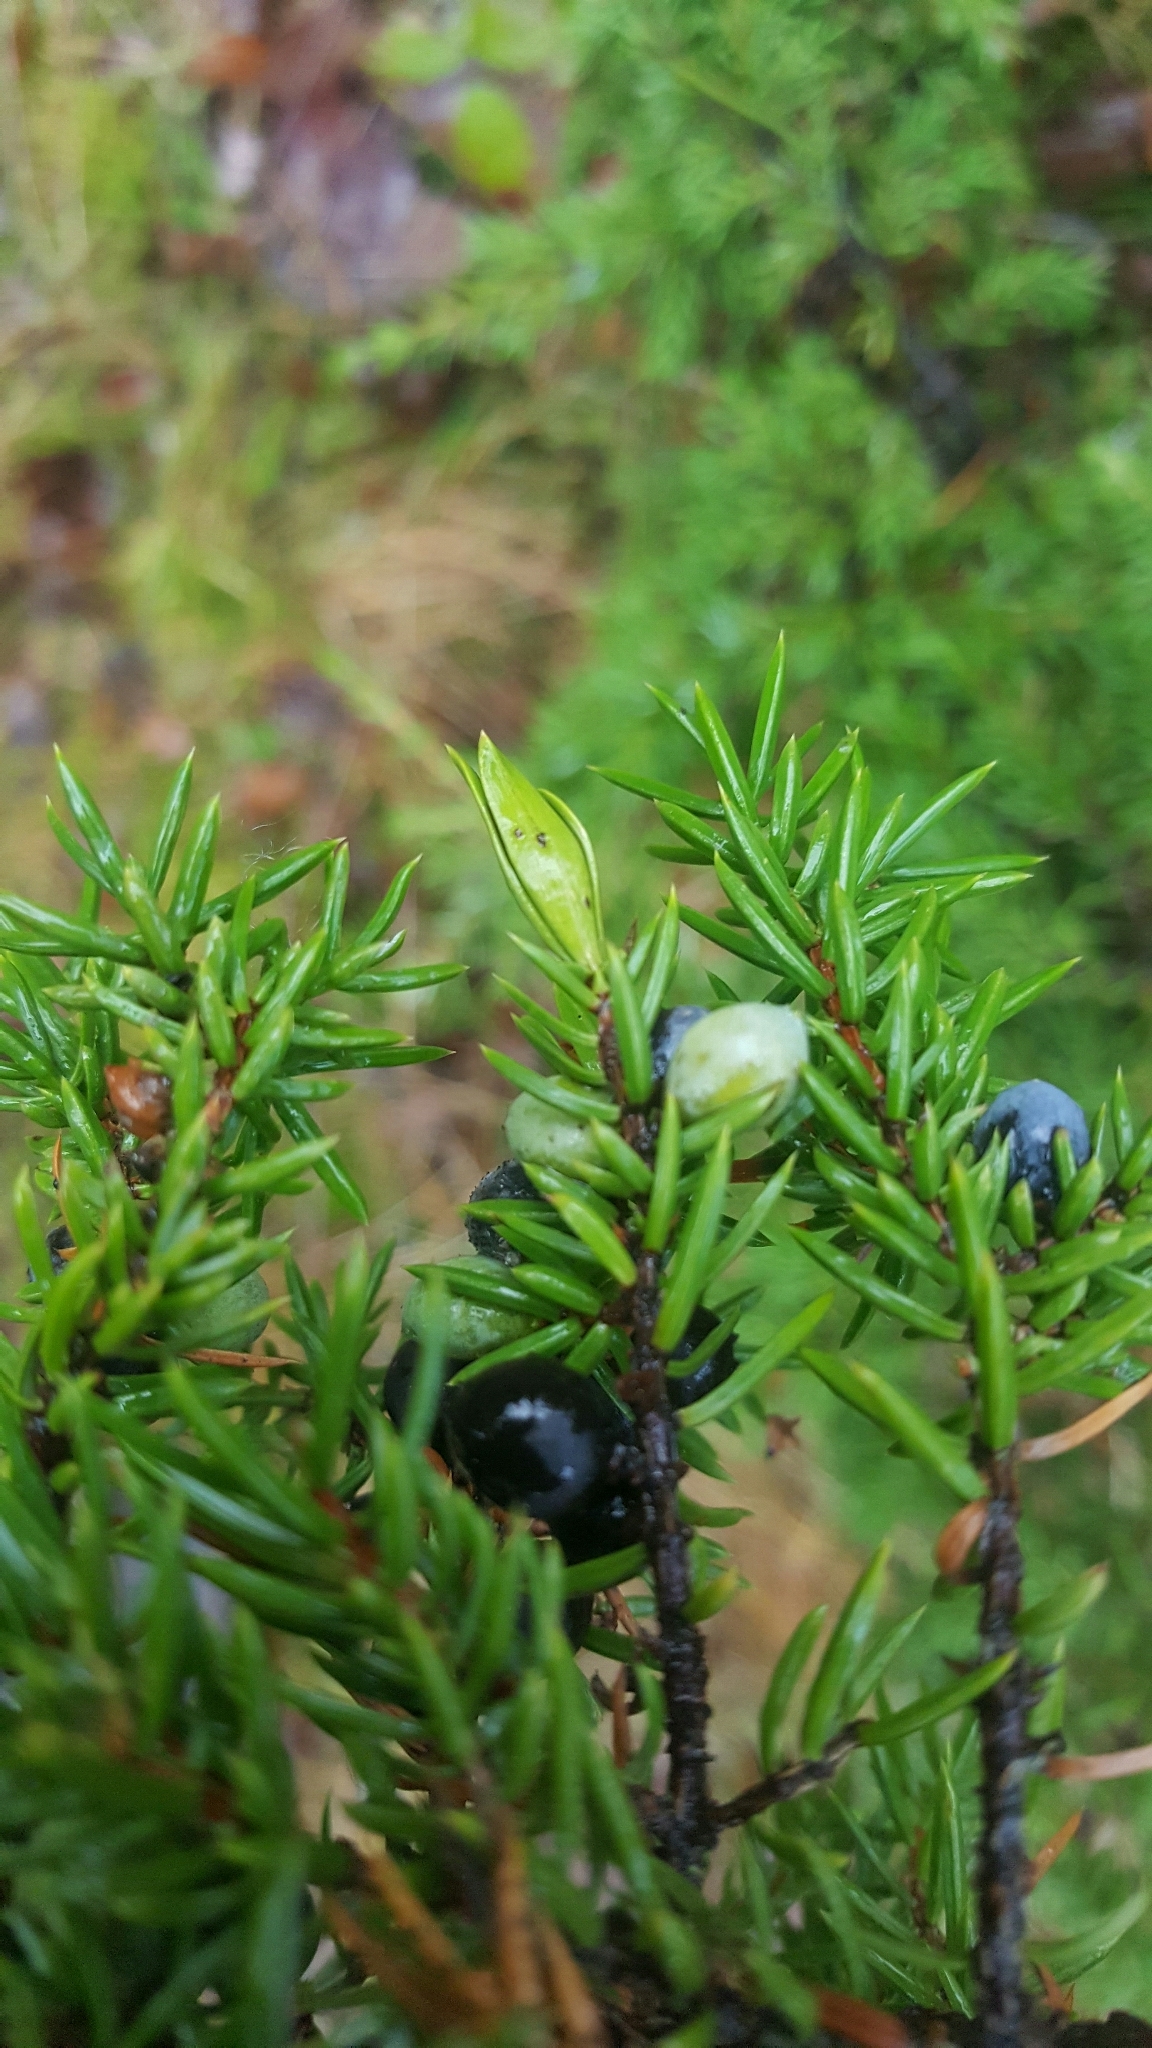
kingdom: Animalia
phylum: Arthropoda
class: Insecta
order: Diptera
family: Cecidomyiidae
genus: Oligotrophus
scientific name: Oligotrophus juniperinus
